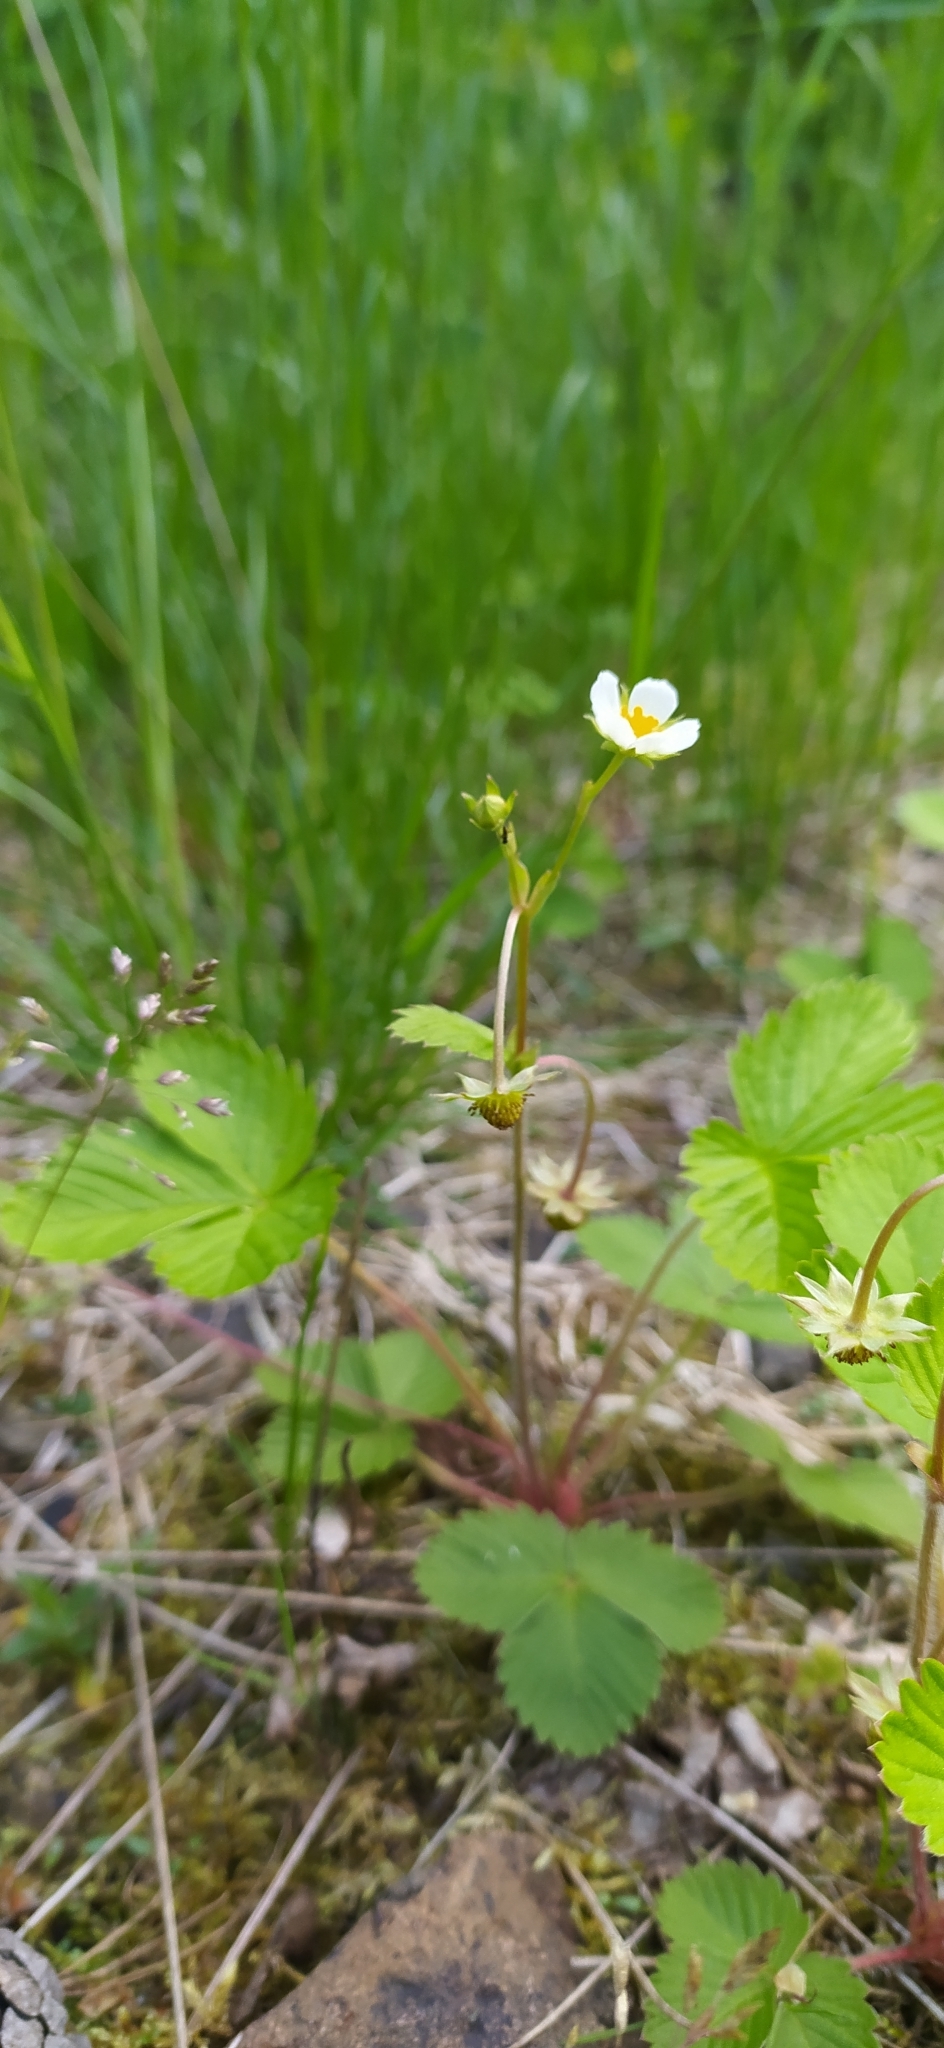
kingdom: Plantae
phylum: Tracheophyta
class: Magnoliopsida
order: Rosales
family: Rosaceae
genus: Fragaria
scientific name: Fragaria vesca
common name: Wild strawberry
